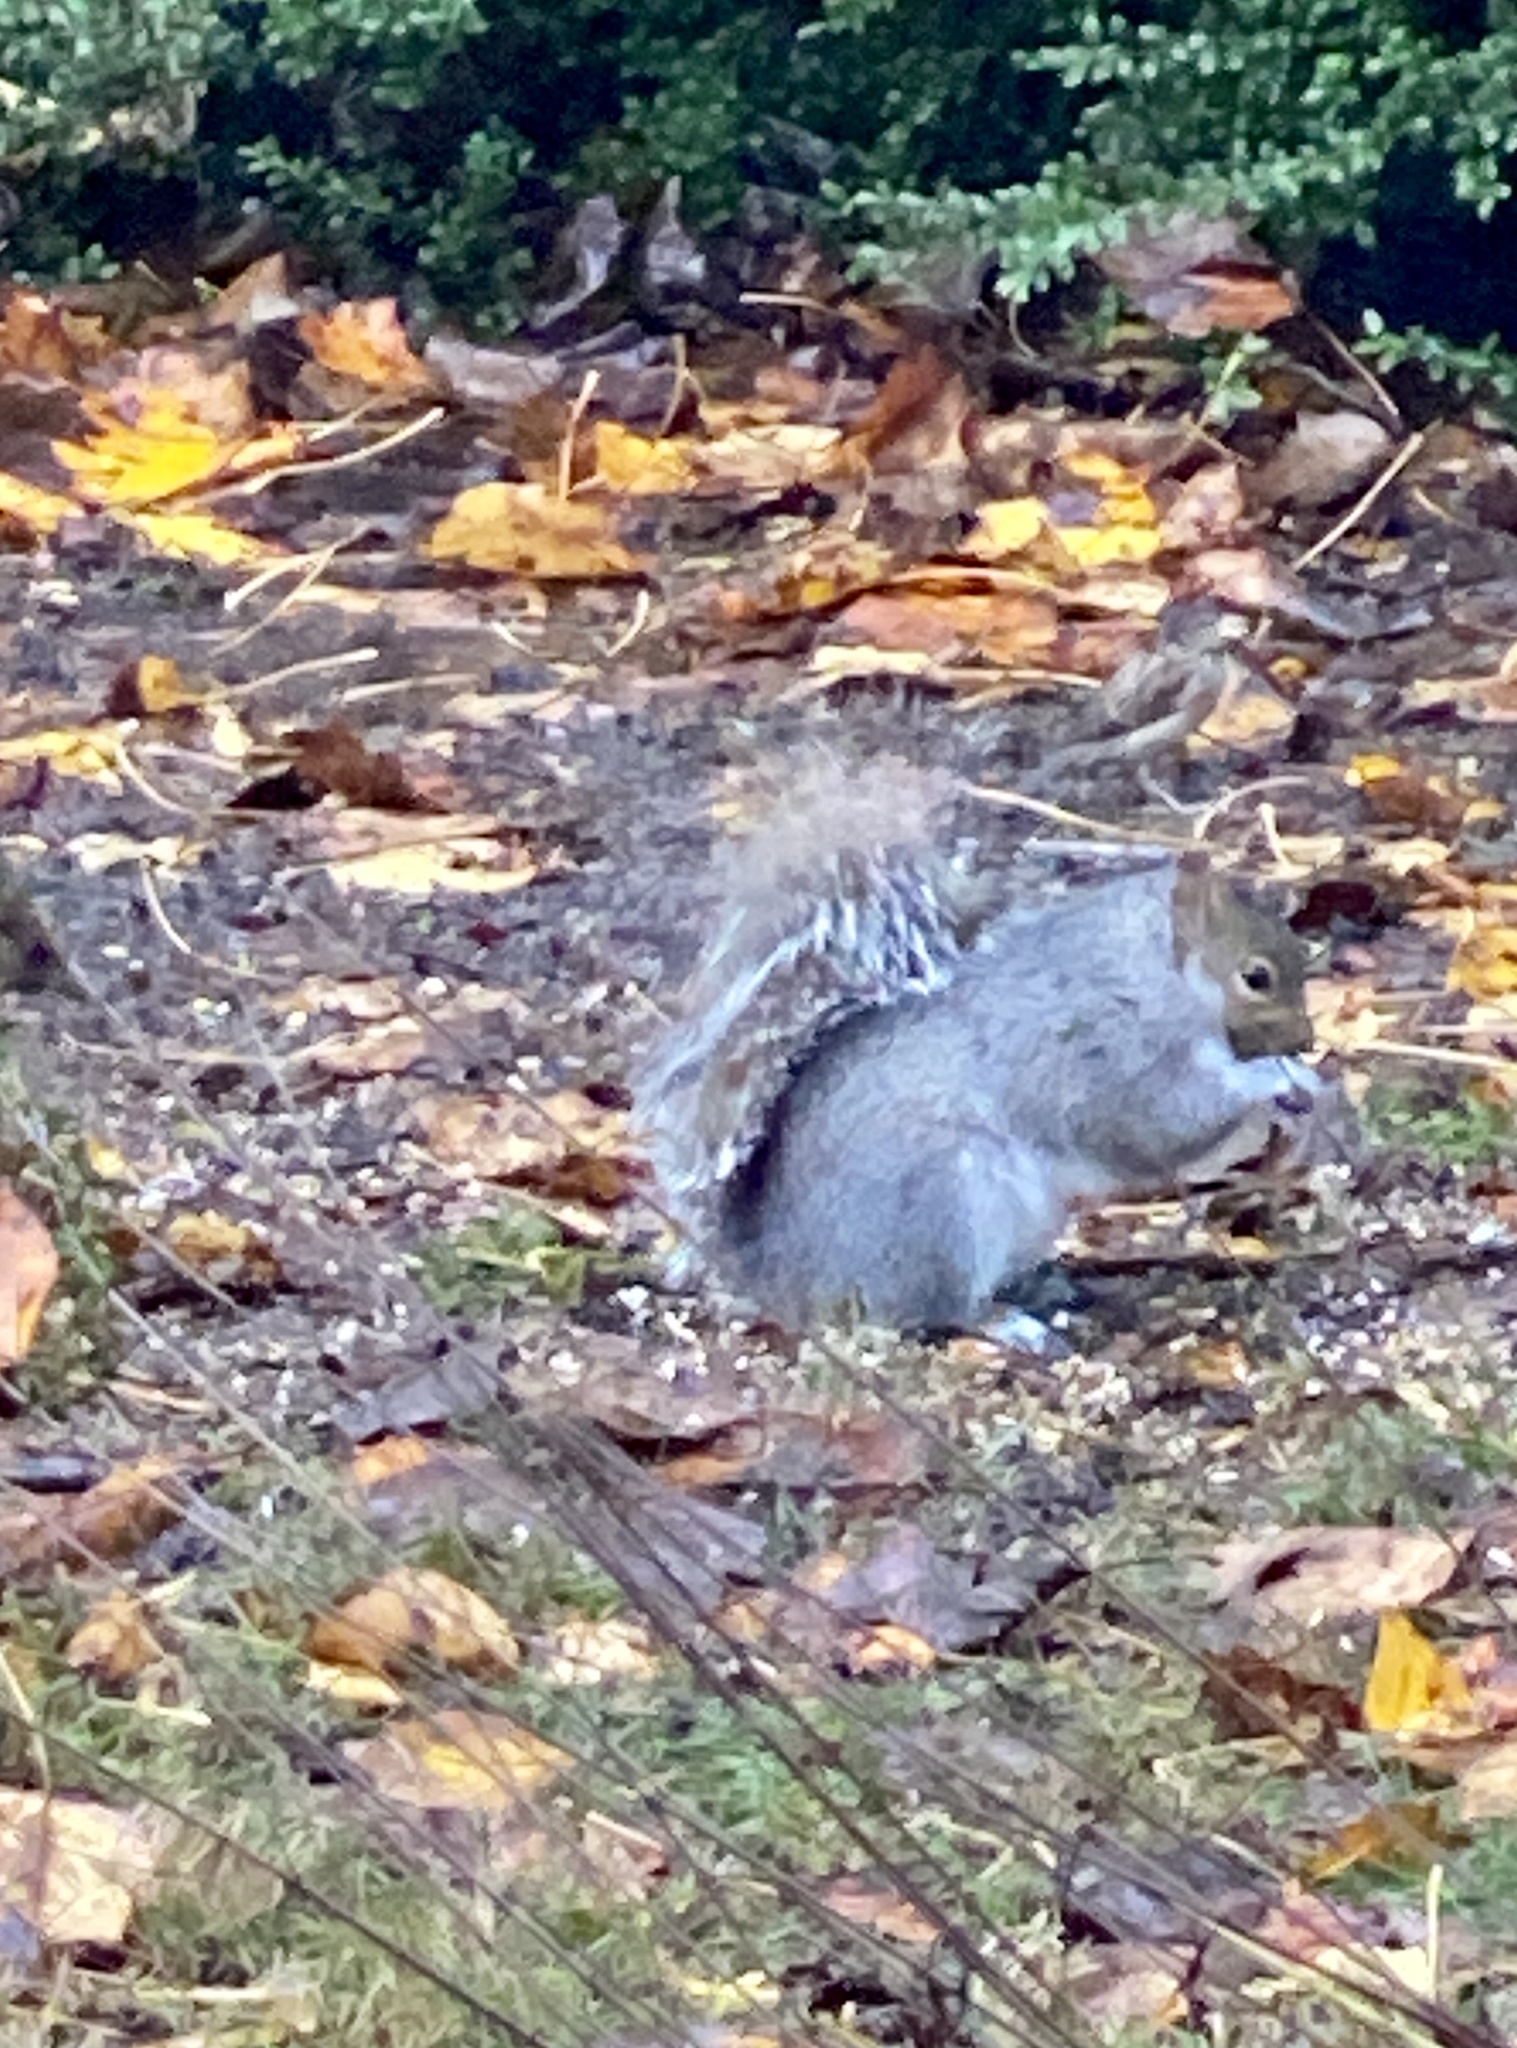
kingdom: Animalia
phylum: Chordata
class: Mammalia
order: Rodentia
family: Sciuridae
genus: Sciurus
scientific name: Sciurus carolinensis
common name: Eastern gray squirrel
